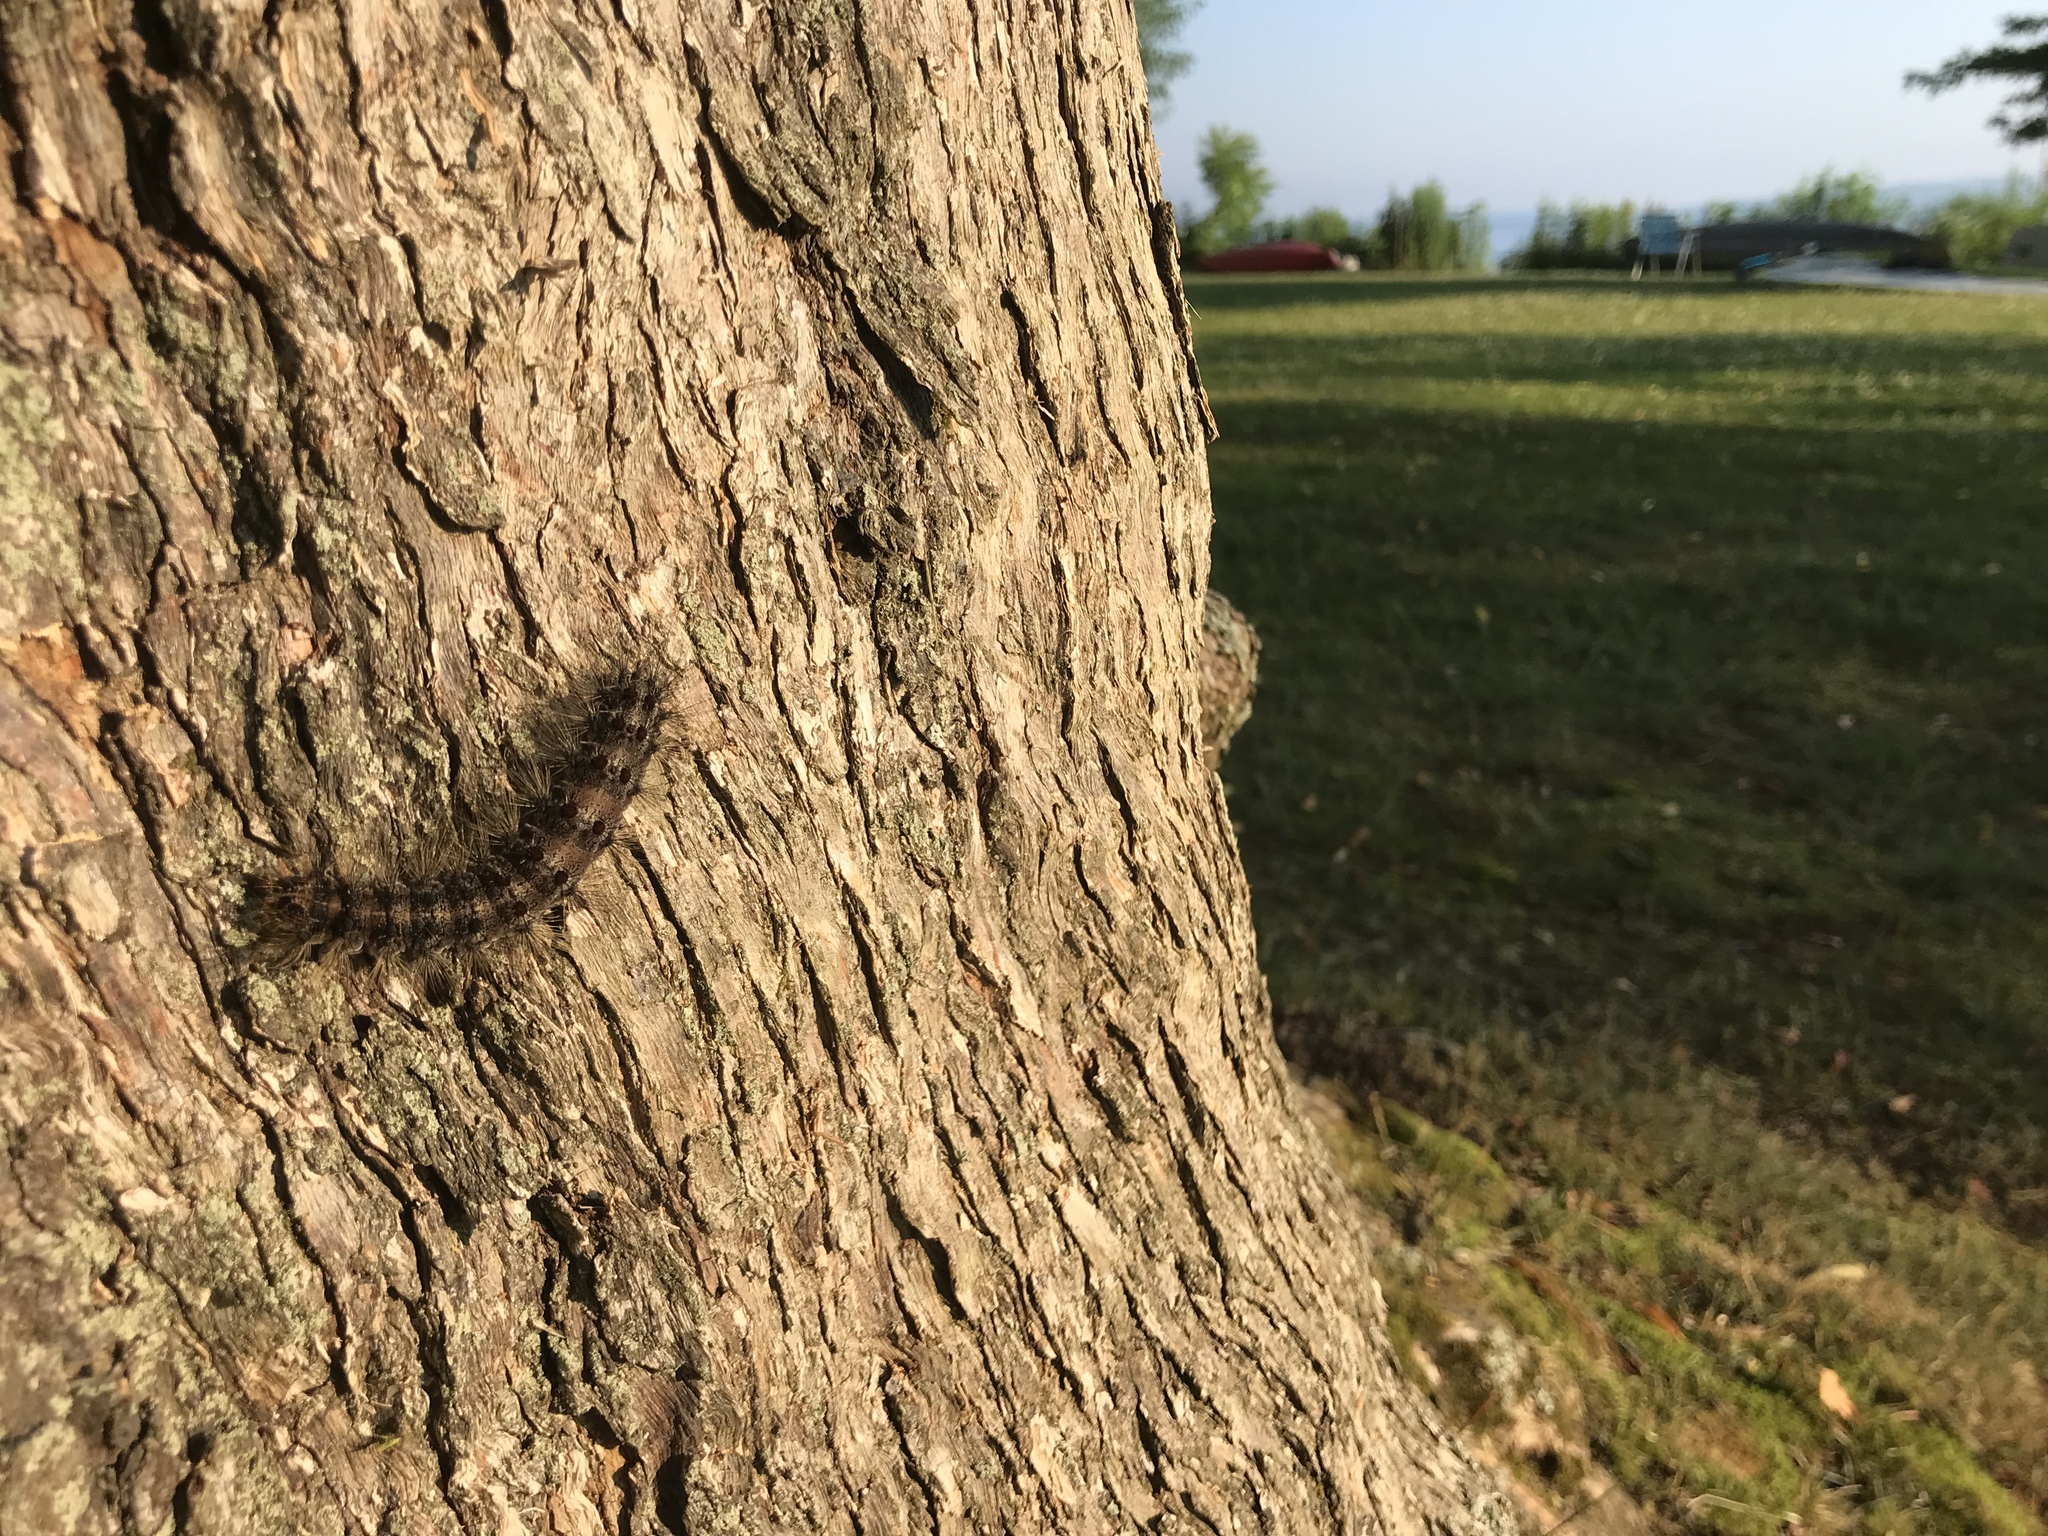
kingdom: Animalia
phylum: Arthropoda
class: Insecta
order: Lepidoptera
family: Erebidae
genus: Lymantria
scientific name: Lymantria dispar
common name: Gypsy moth
